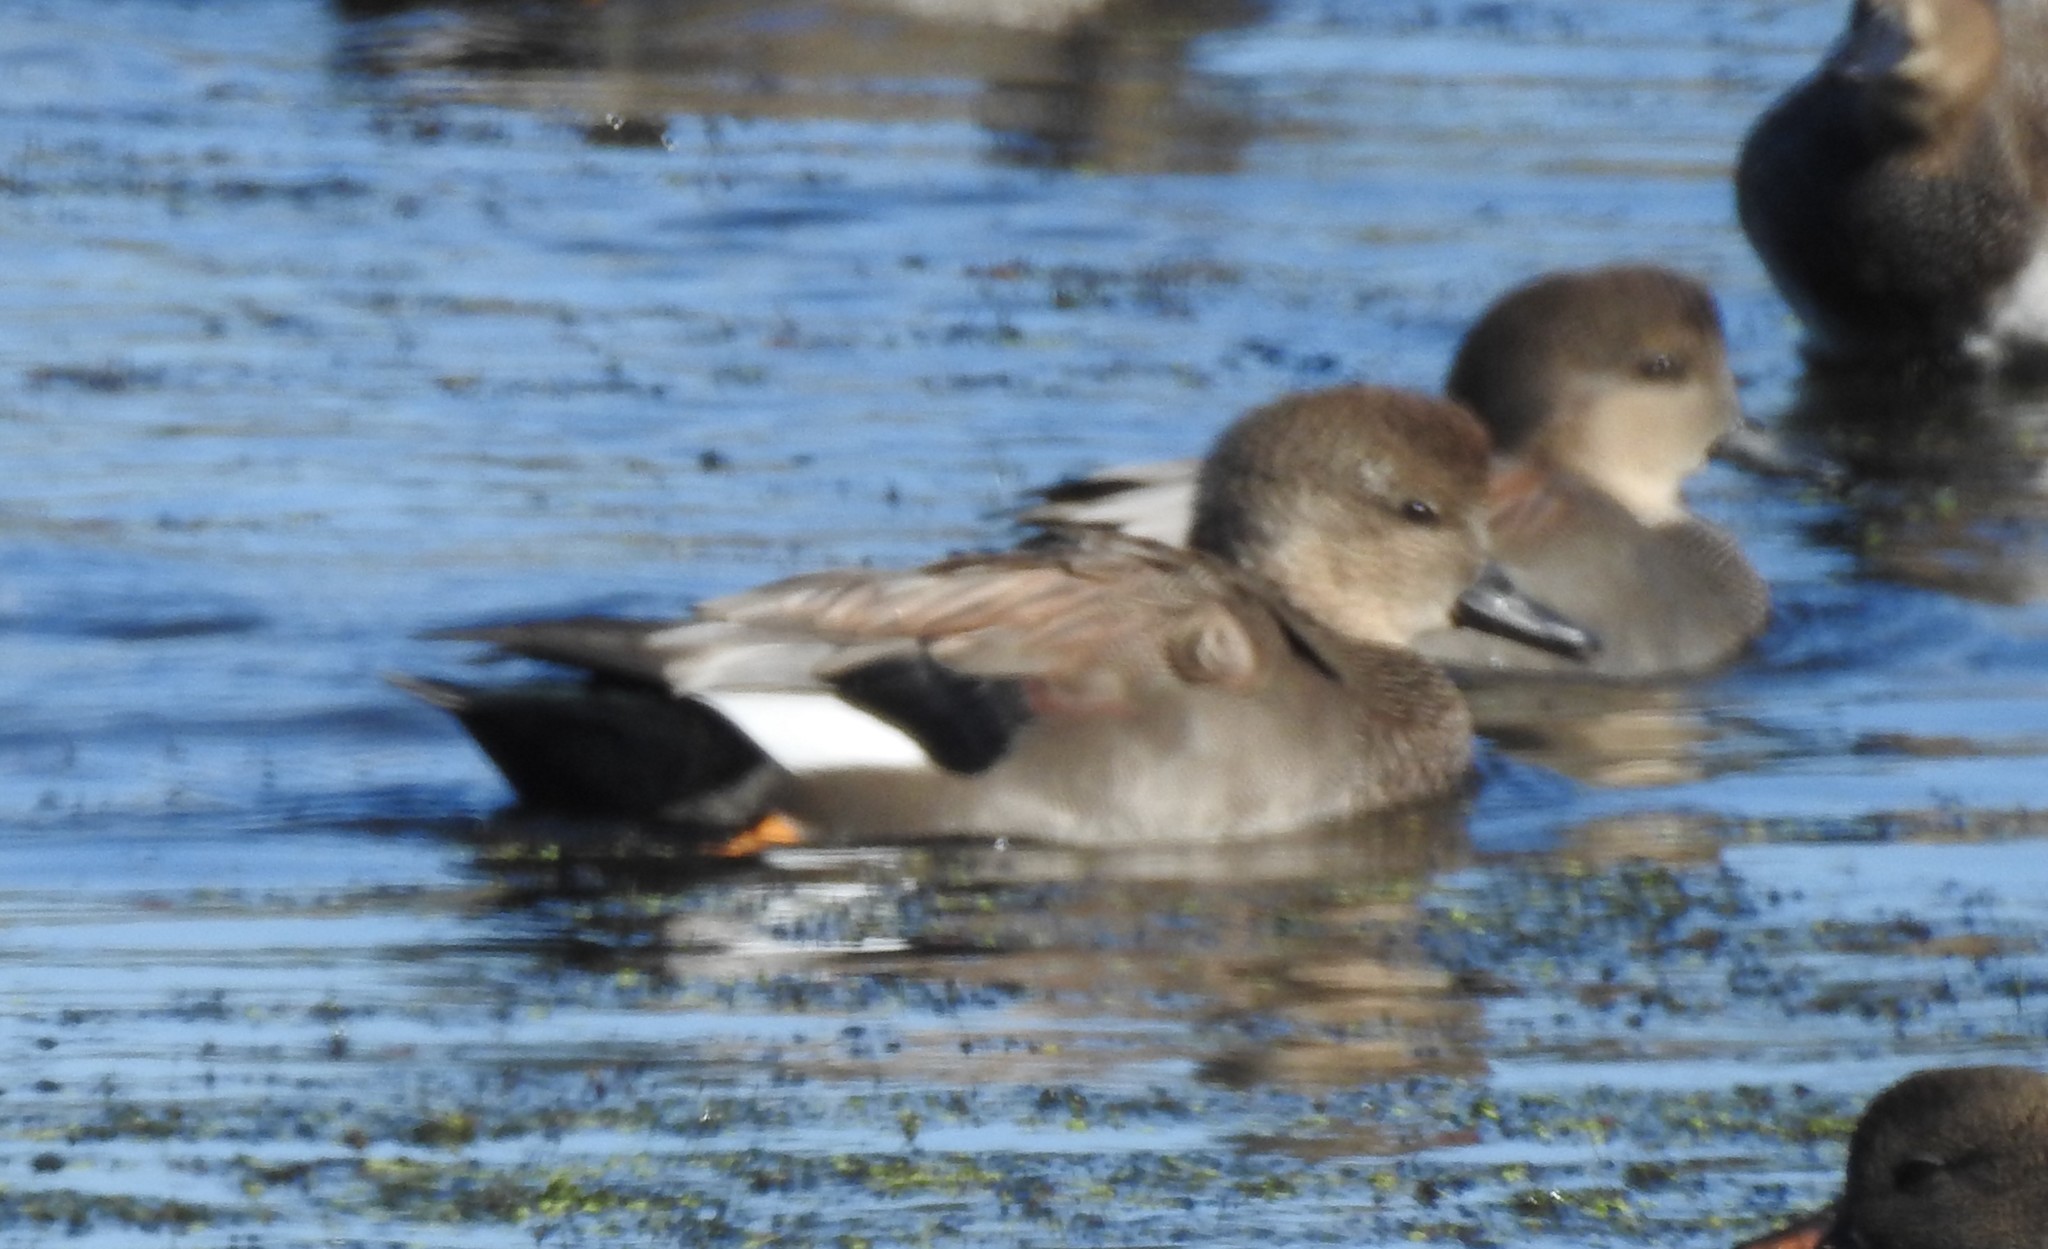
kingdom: Animalia
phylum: Chordata
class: Aves
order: Anseriformes
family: Anatidae
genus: Mareca
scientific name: Mareca strepera
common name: Gadwall
